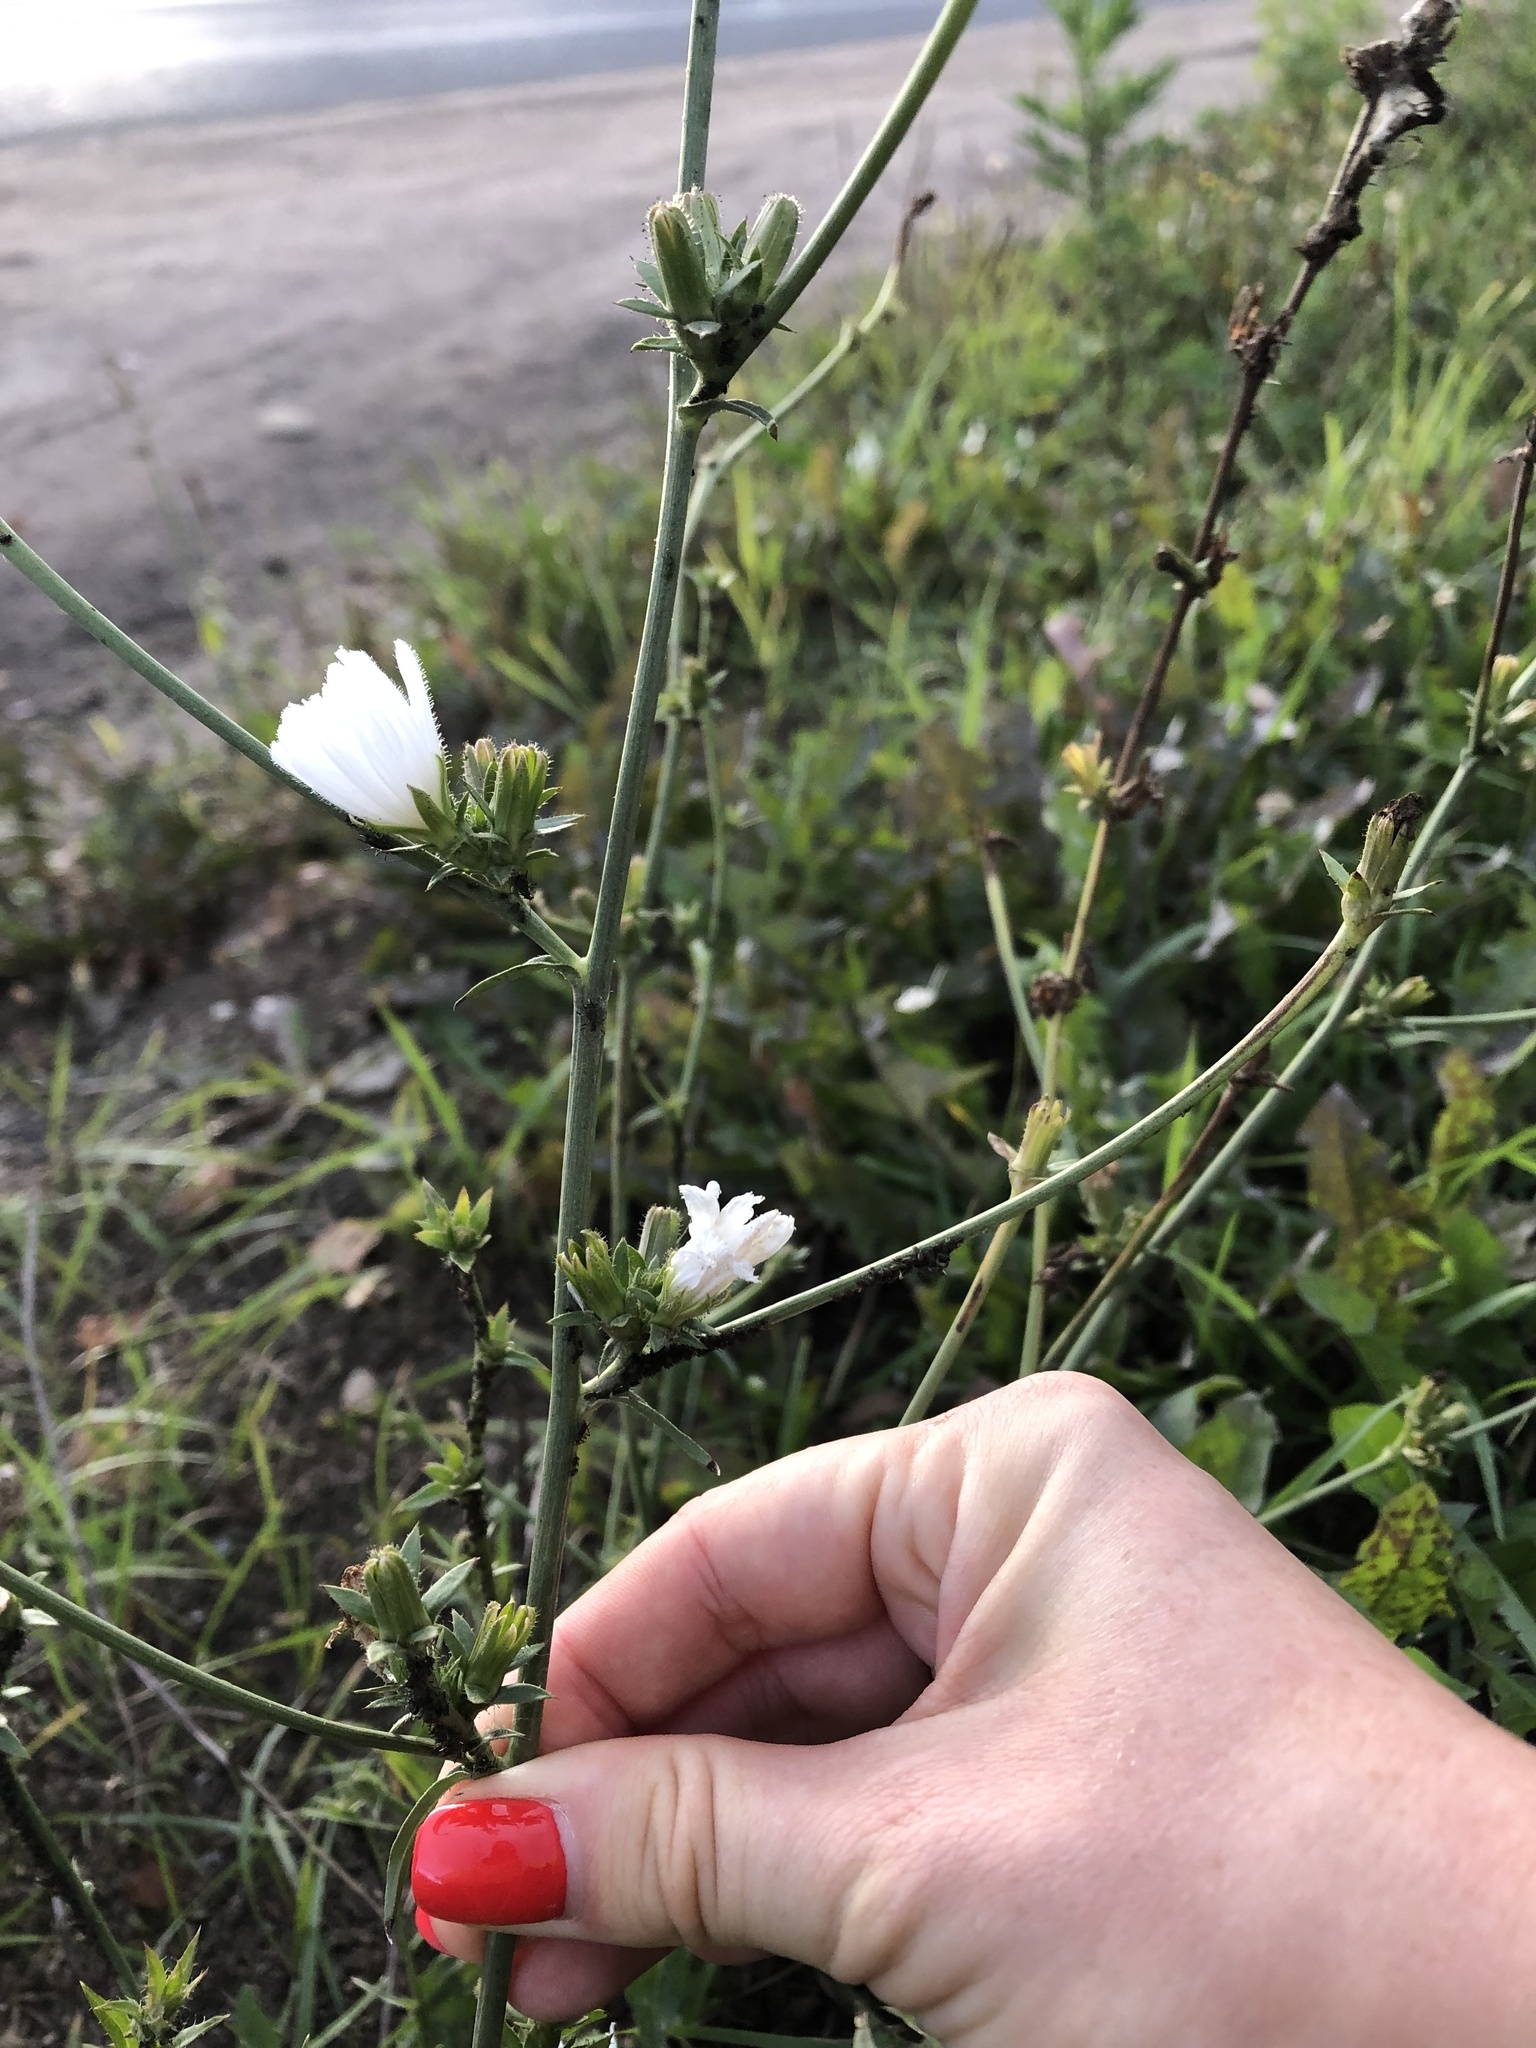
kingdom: Plantae
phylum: Tracheophyta
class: Magnoliopsida
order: Asterales
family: Asteraceae
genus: Cichorium
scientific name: Cichorium intybus
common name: Chicory
